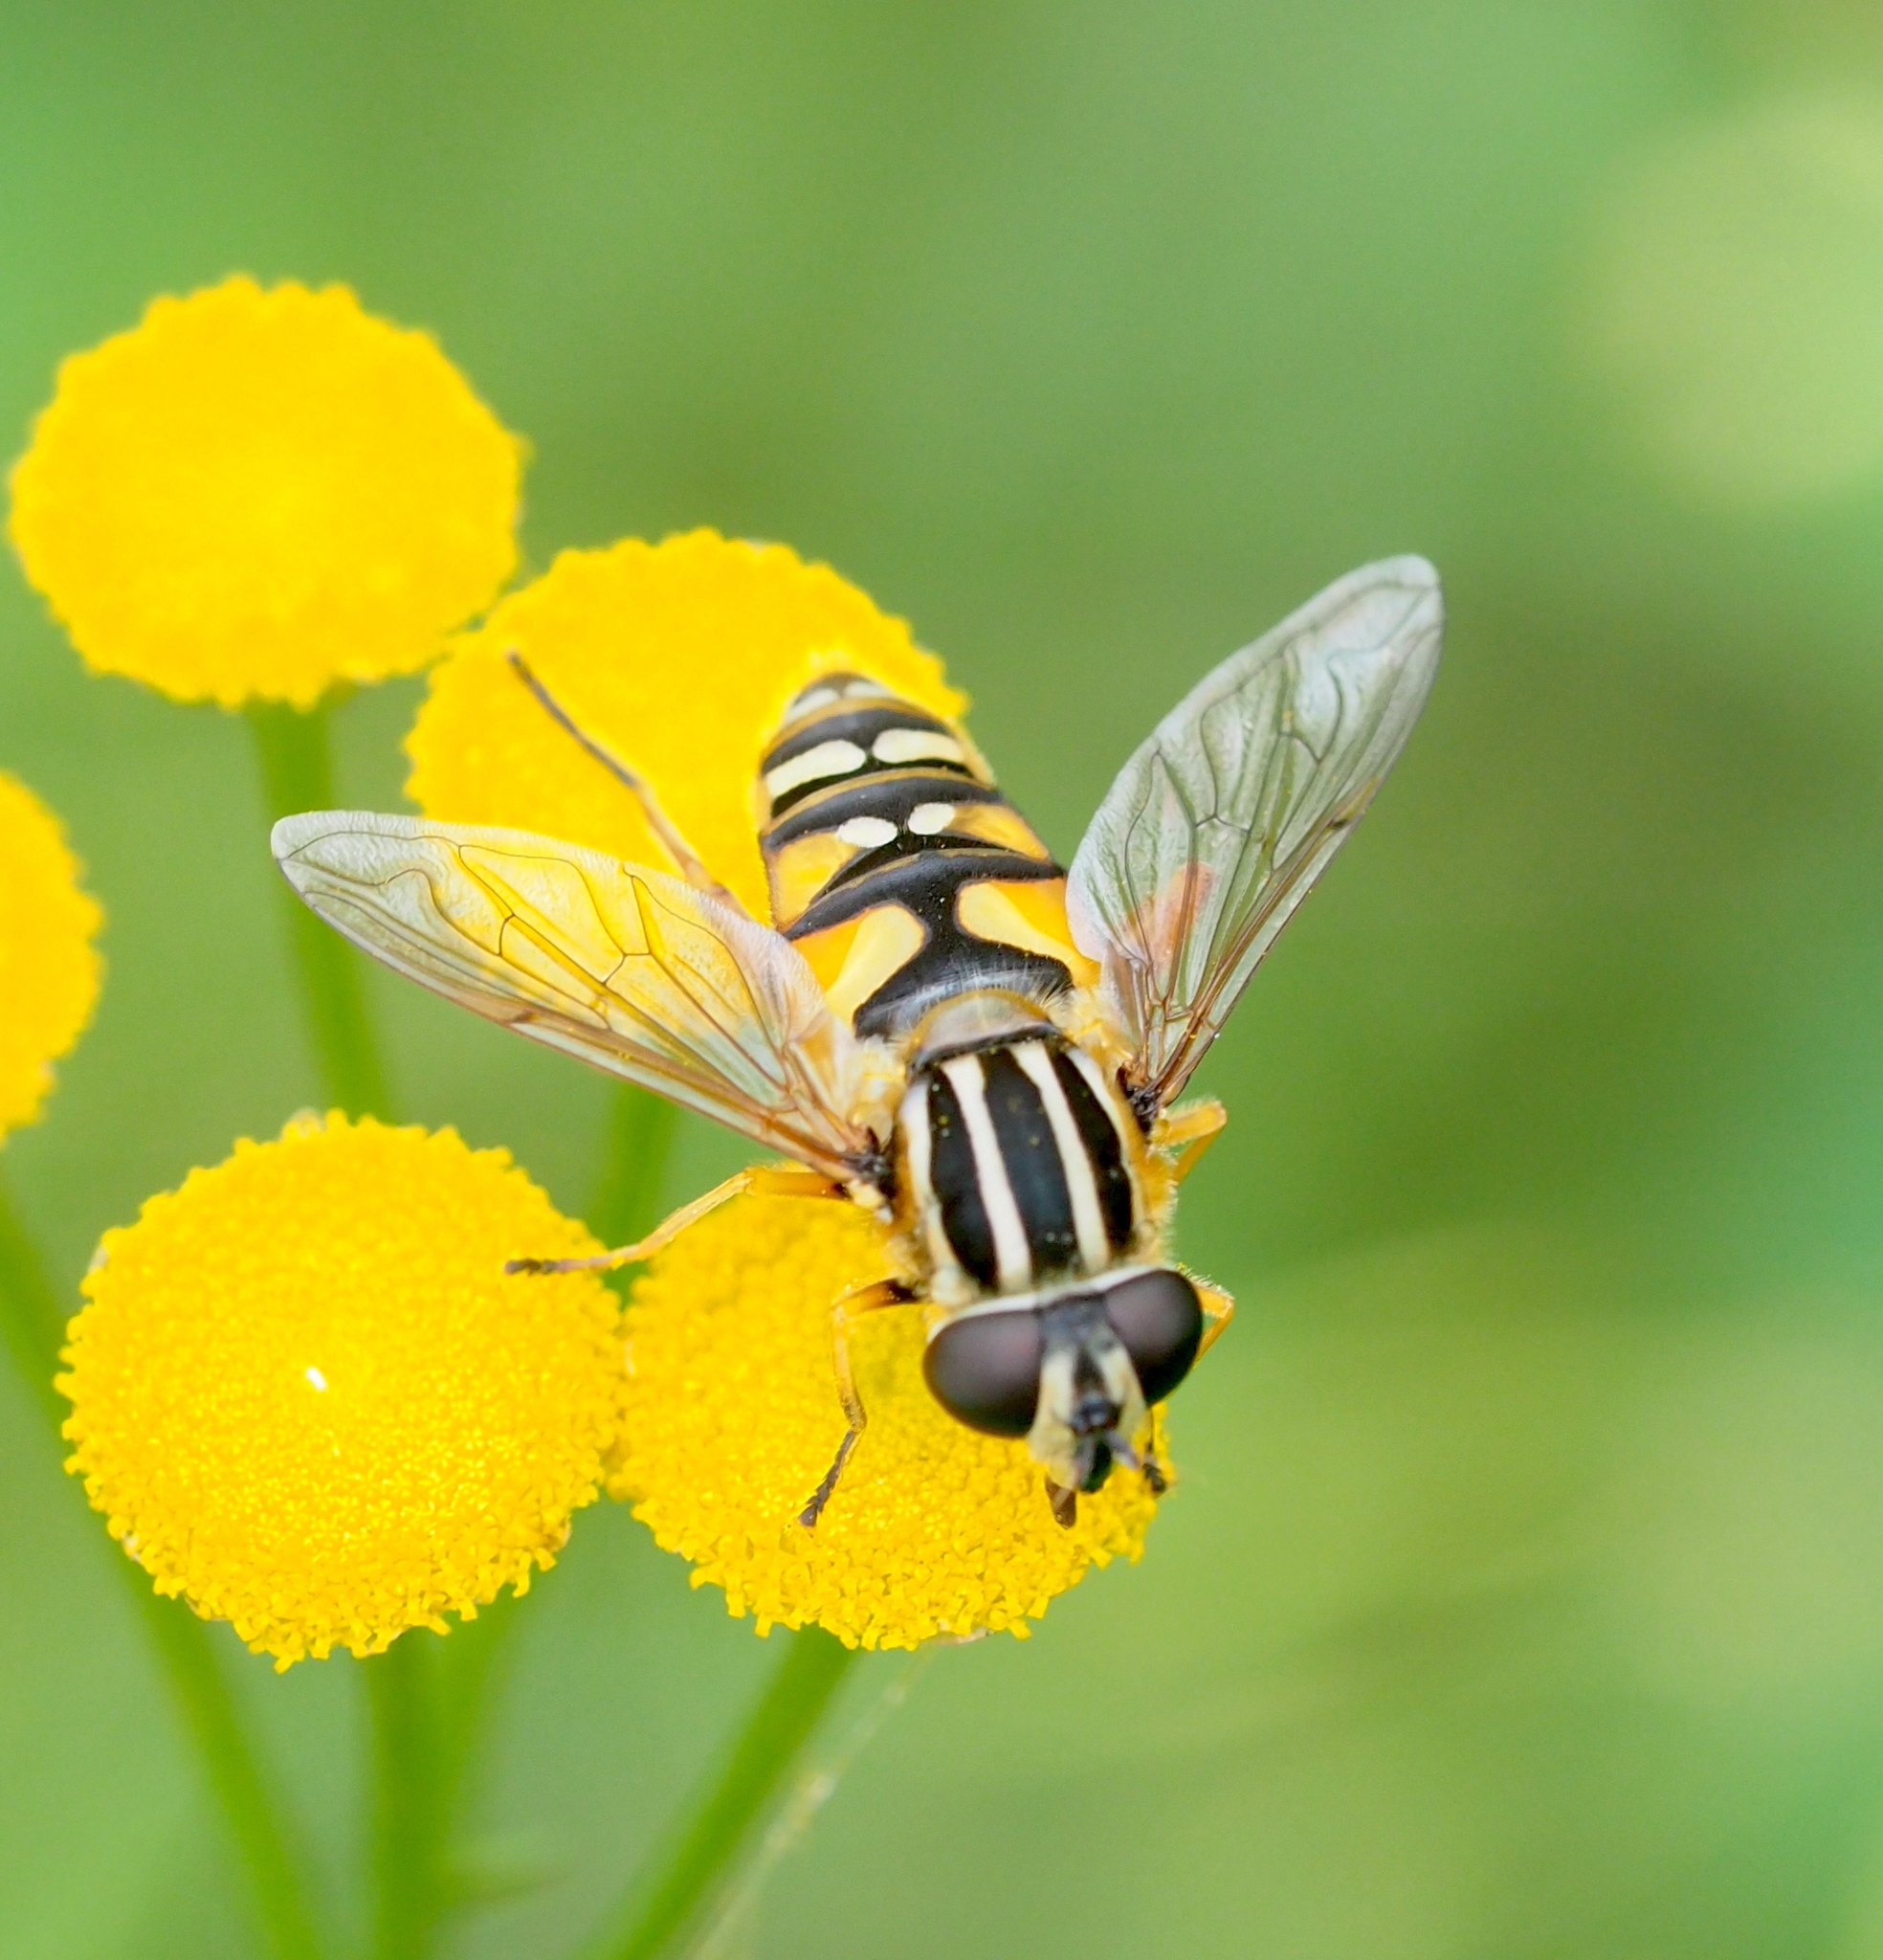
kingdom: Animalia
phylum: Arthropoda
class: Insecta
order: Diptera
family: Syrphidae
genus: Helophilus
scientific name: Helophilus pendulus
